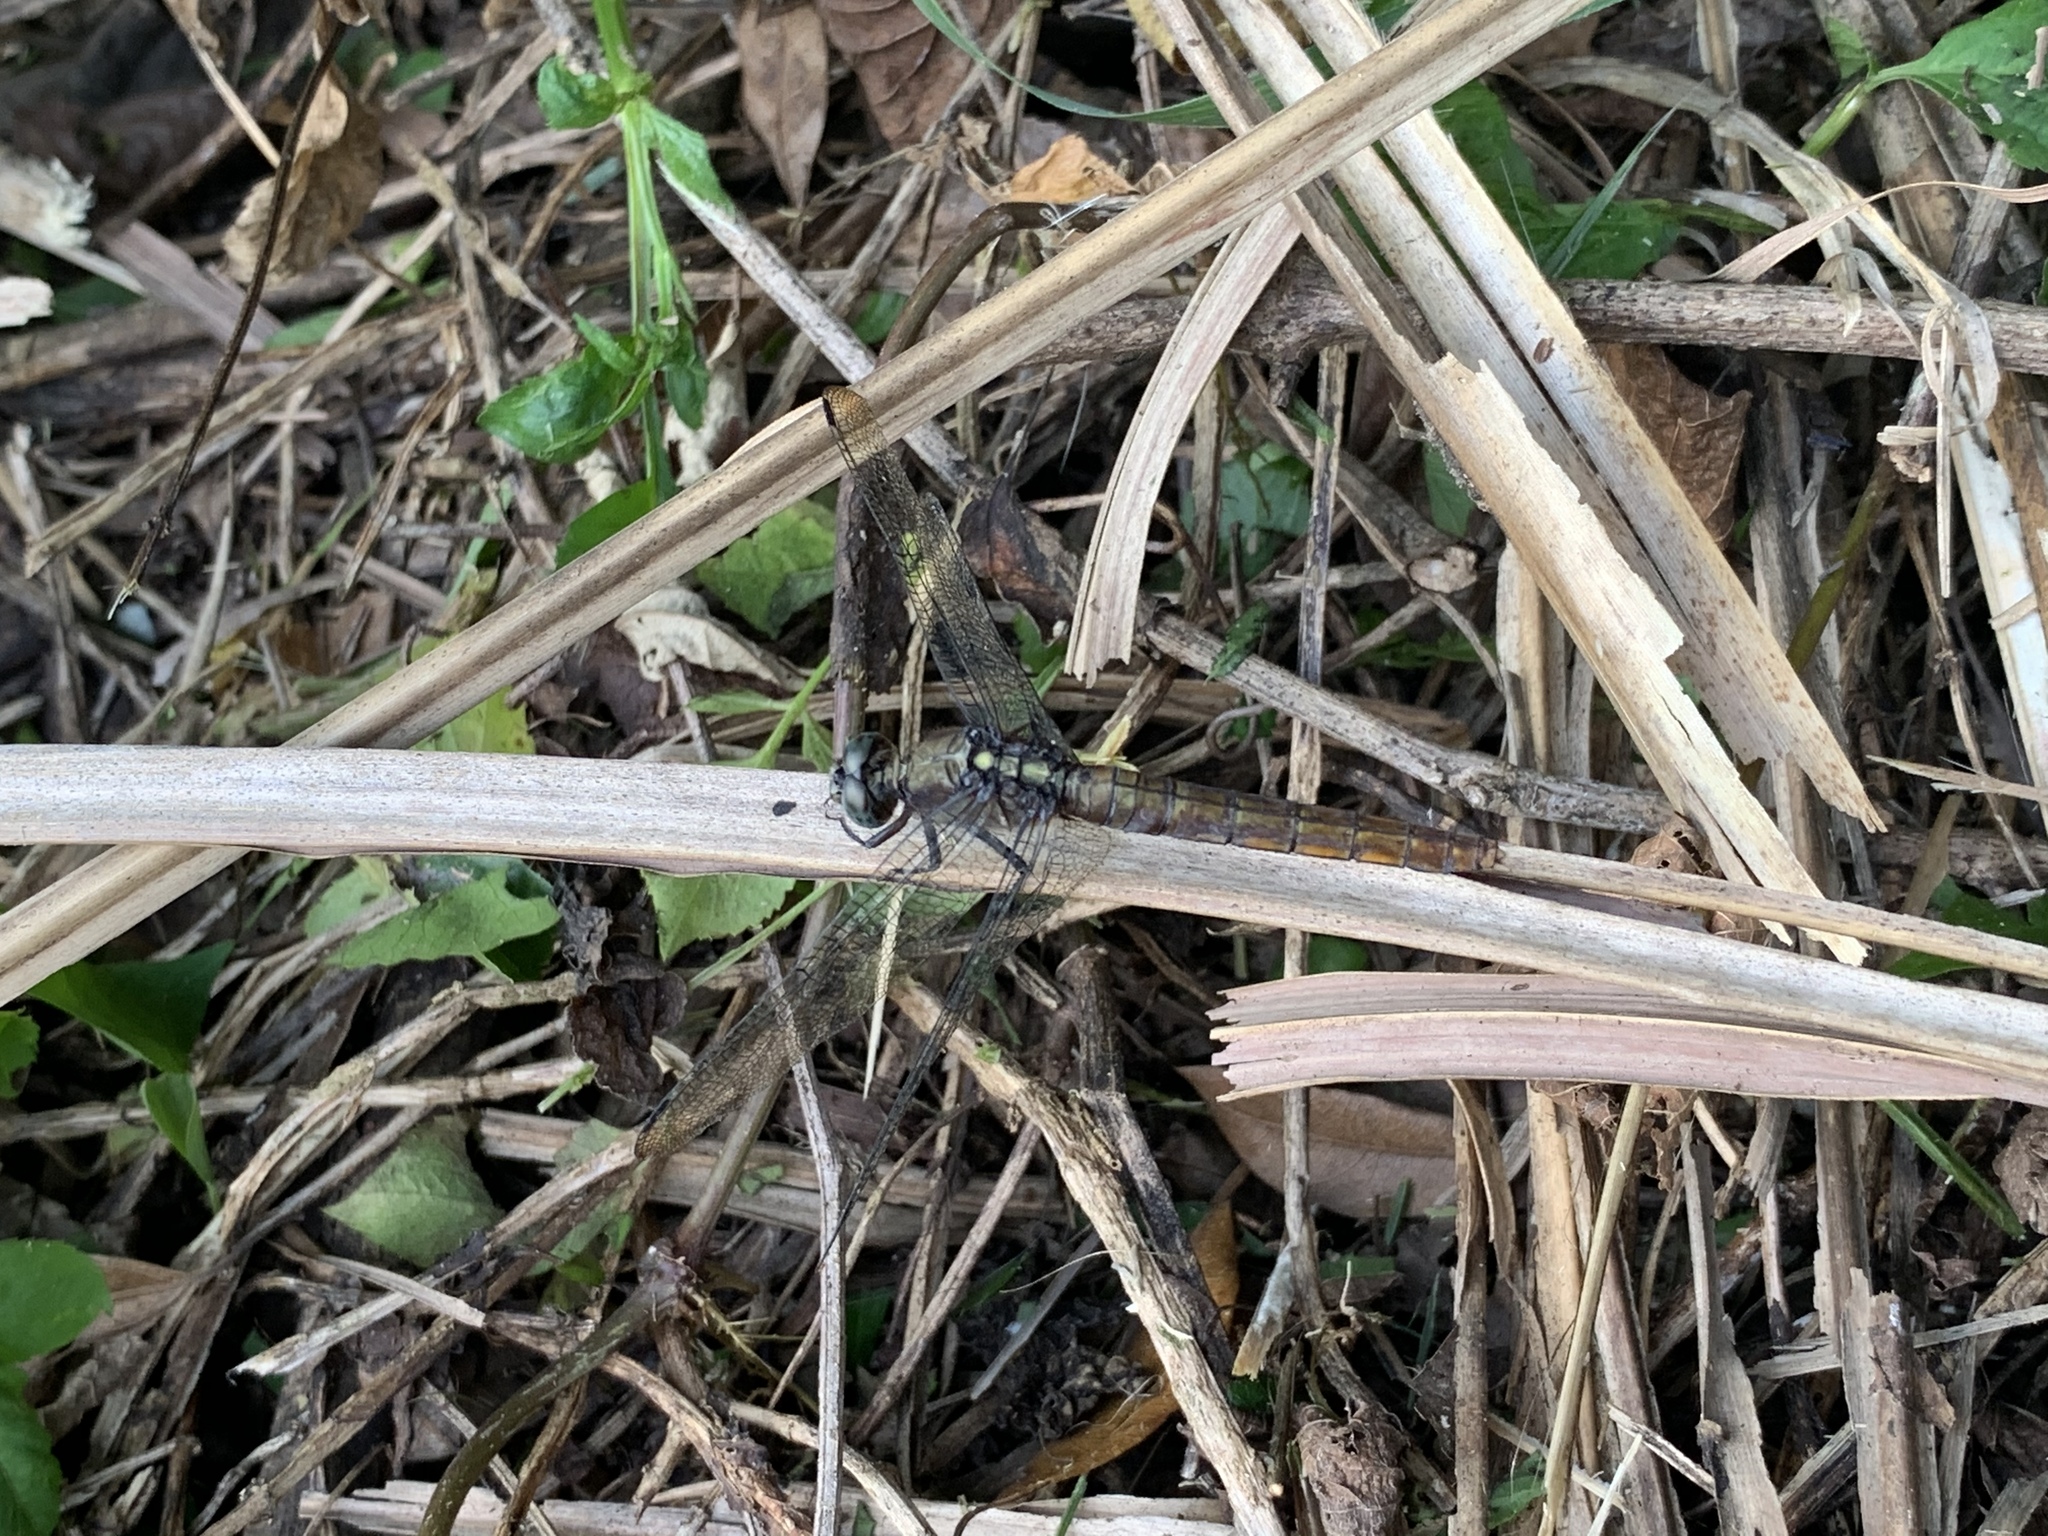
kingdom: Animalia
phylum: Arthropoda
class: Insecta
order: Odonata
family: Libellulidae
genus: Orthetrum
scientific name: Orthetrum pruinosum
